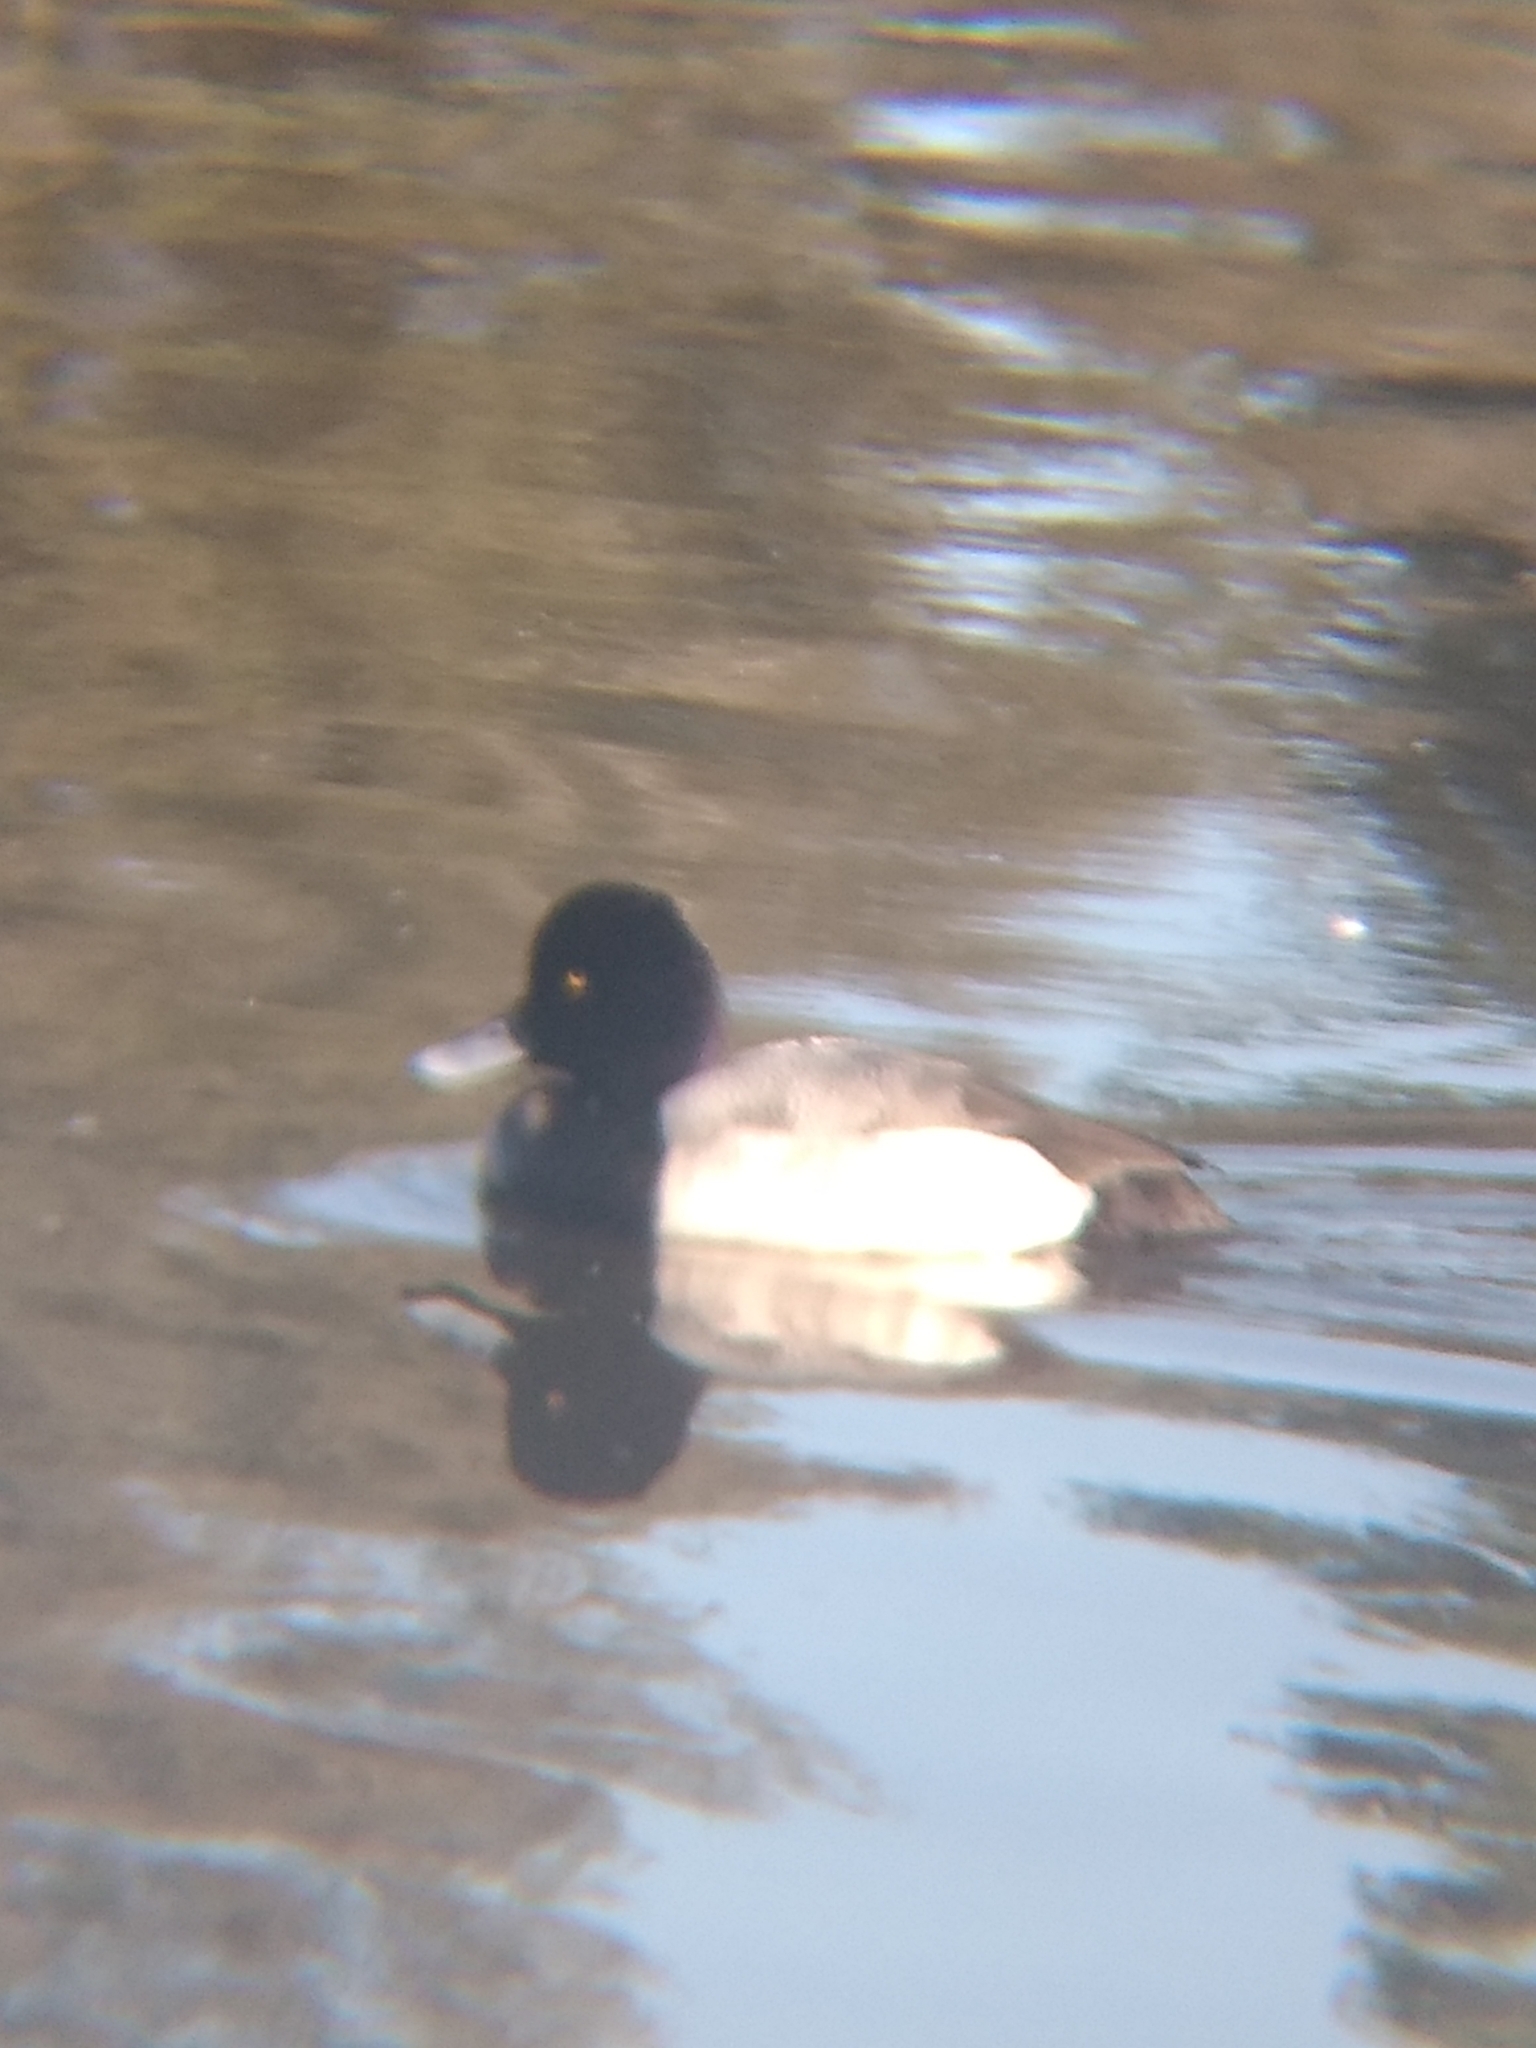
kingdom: Animalia
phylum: Chordata
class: Aves
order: Anseriformes
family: Anatidae
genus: Aythya
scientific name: Aythya affinis
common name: Lesser scaup
